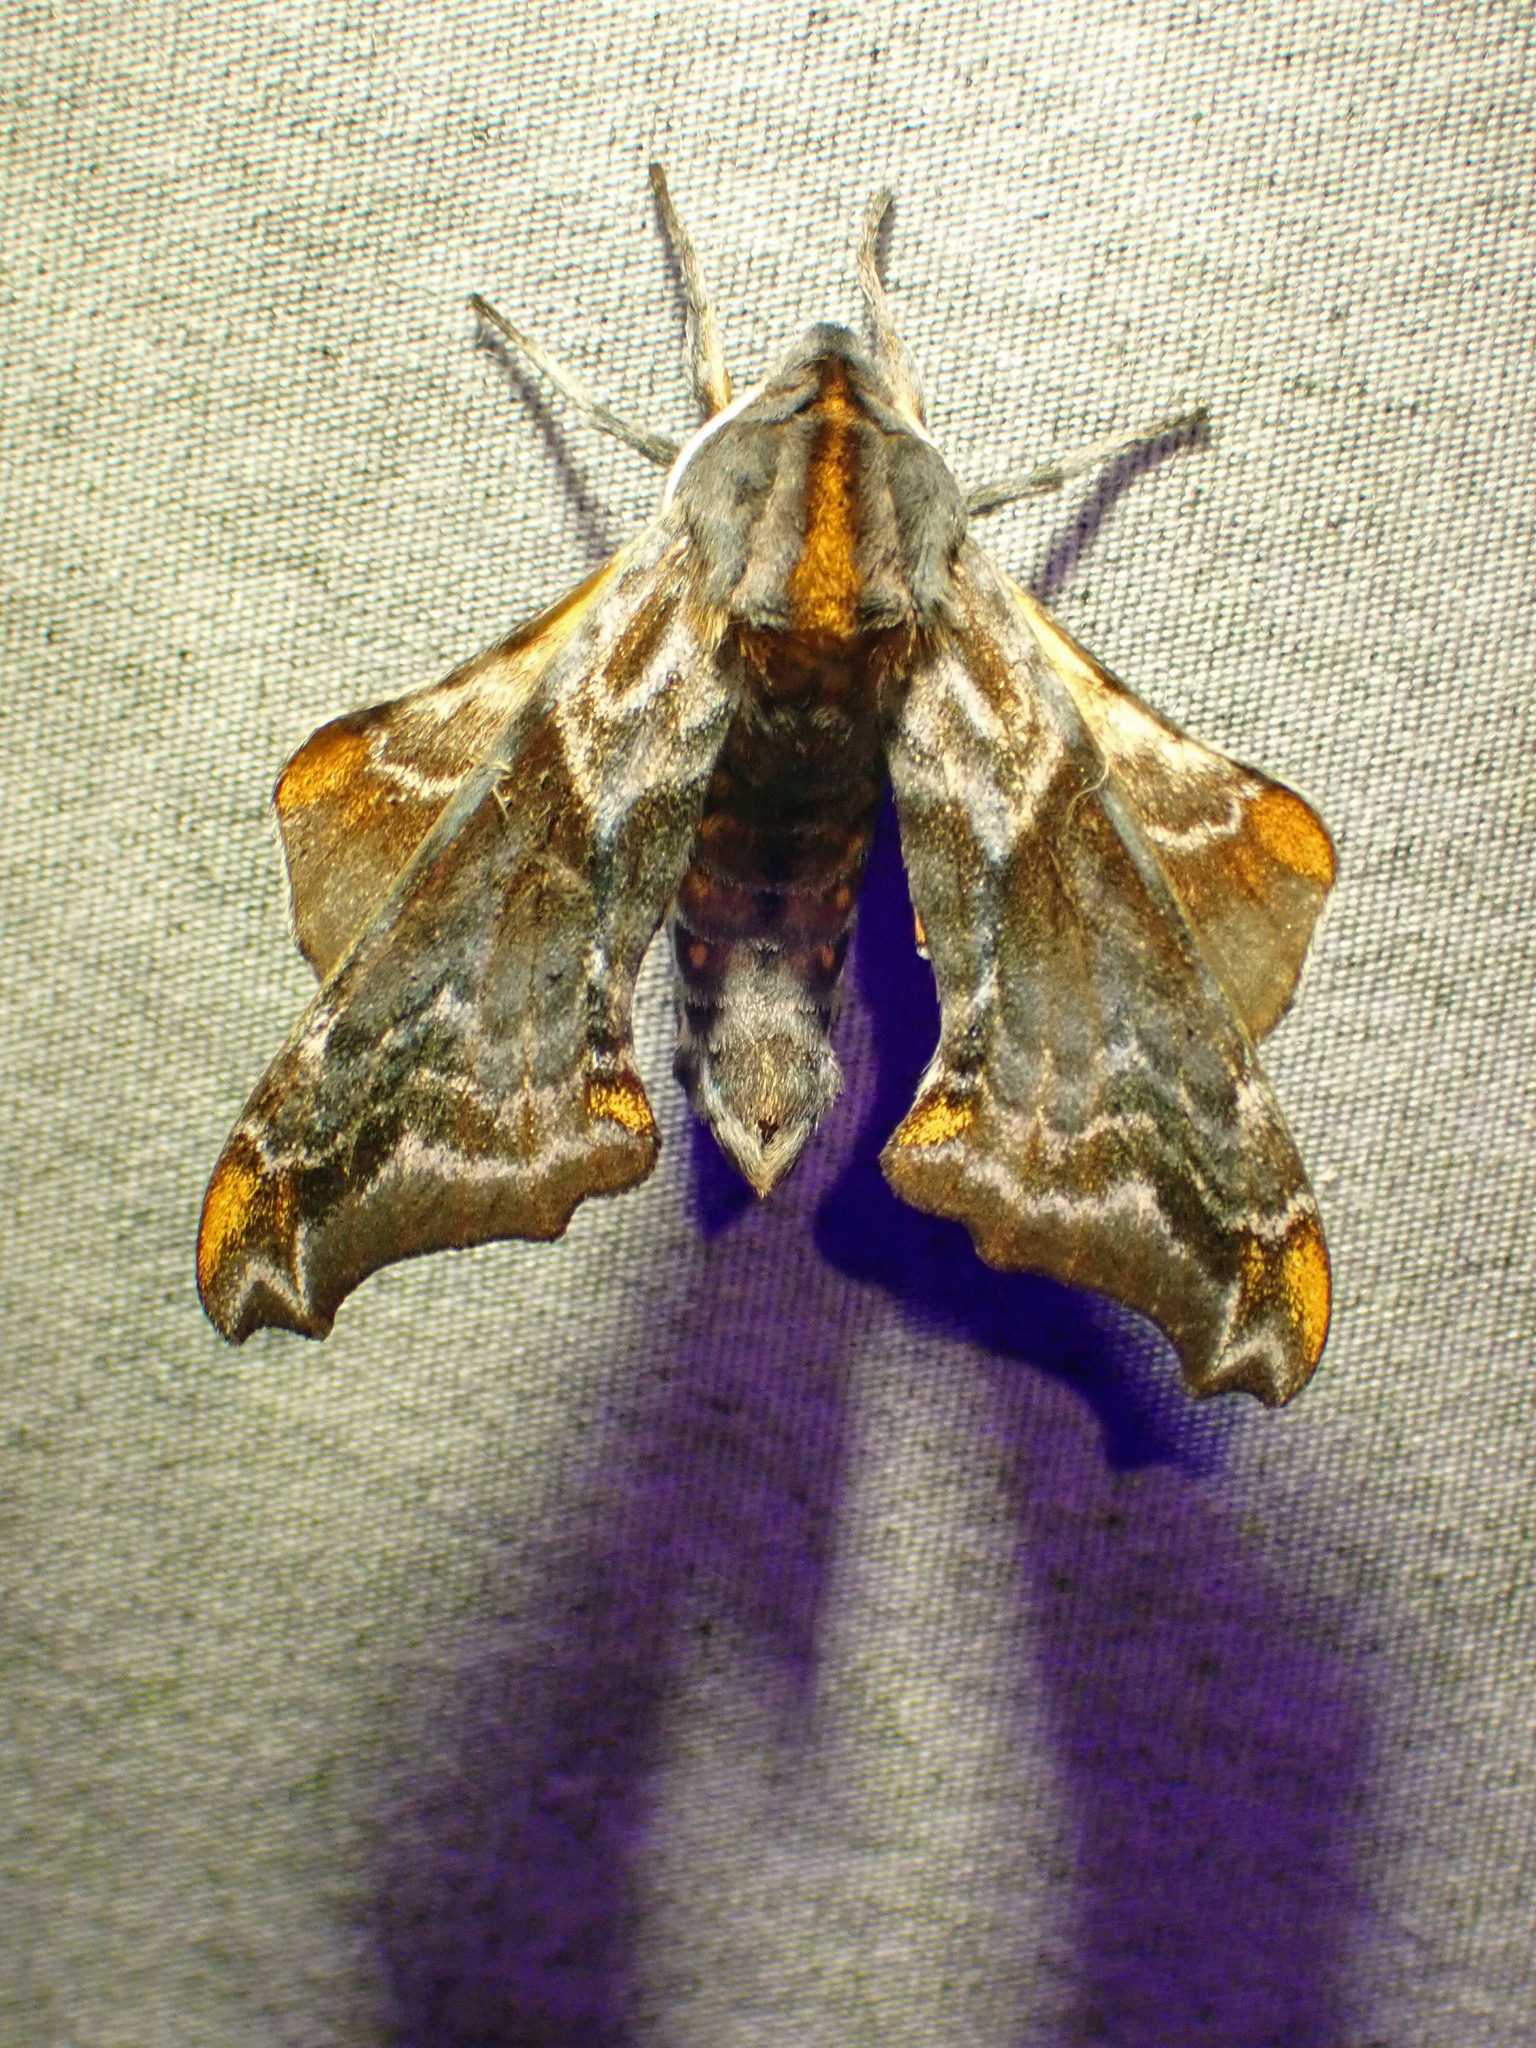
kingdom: Animalia
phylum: Arthropoda
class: Insecta
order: Lepidoptera
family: Sphingidae
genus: Paonias
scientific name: Paonias myops
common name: Small-eyed sphinx
